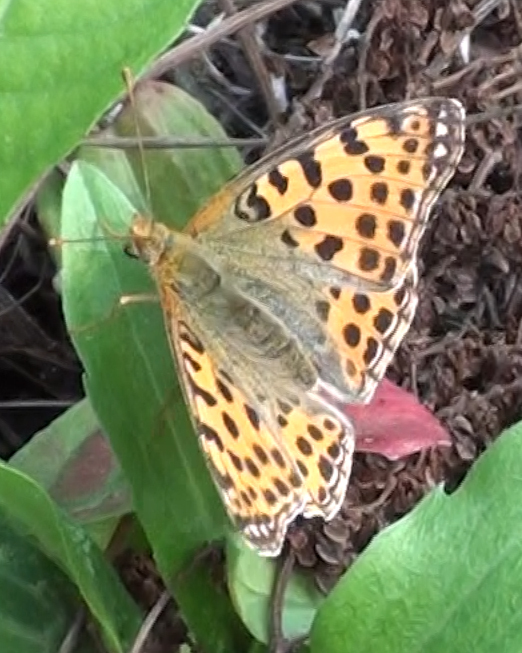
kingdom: Animalia
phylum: Arthropoda
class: Insecta
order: Lepidoptera
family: Nymphalidae
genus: Issoria
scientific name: Issoria lathonia
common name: Queen of spain fritillary
